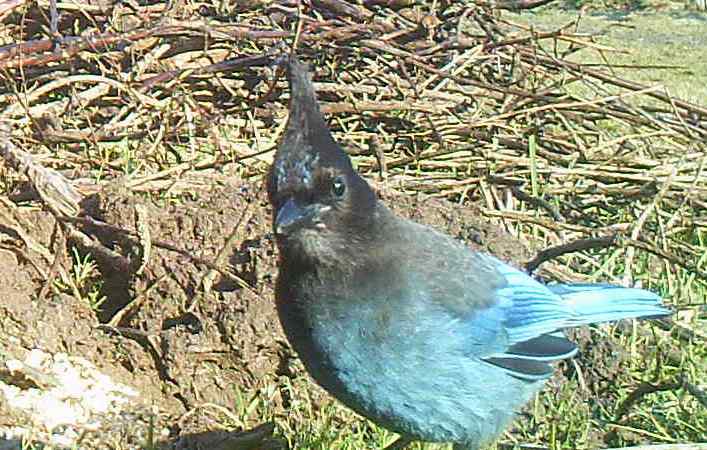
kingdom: Animalia
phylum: Chordata
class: Aves
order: Passeriformes
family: Corvidae
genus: Cyanocitta
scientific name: Cyanocitta stelleri
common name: Steller's jay
